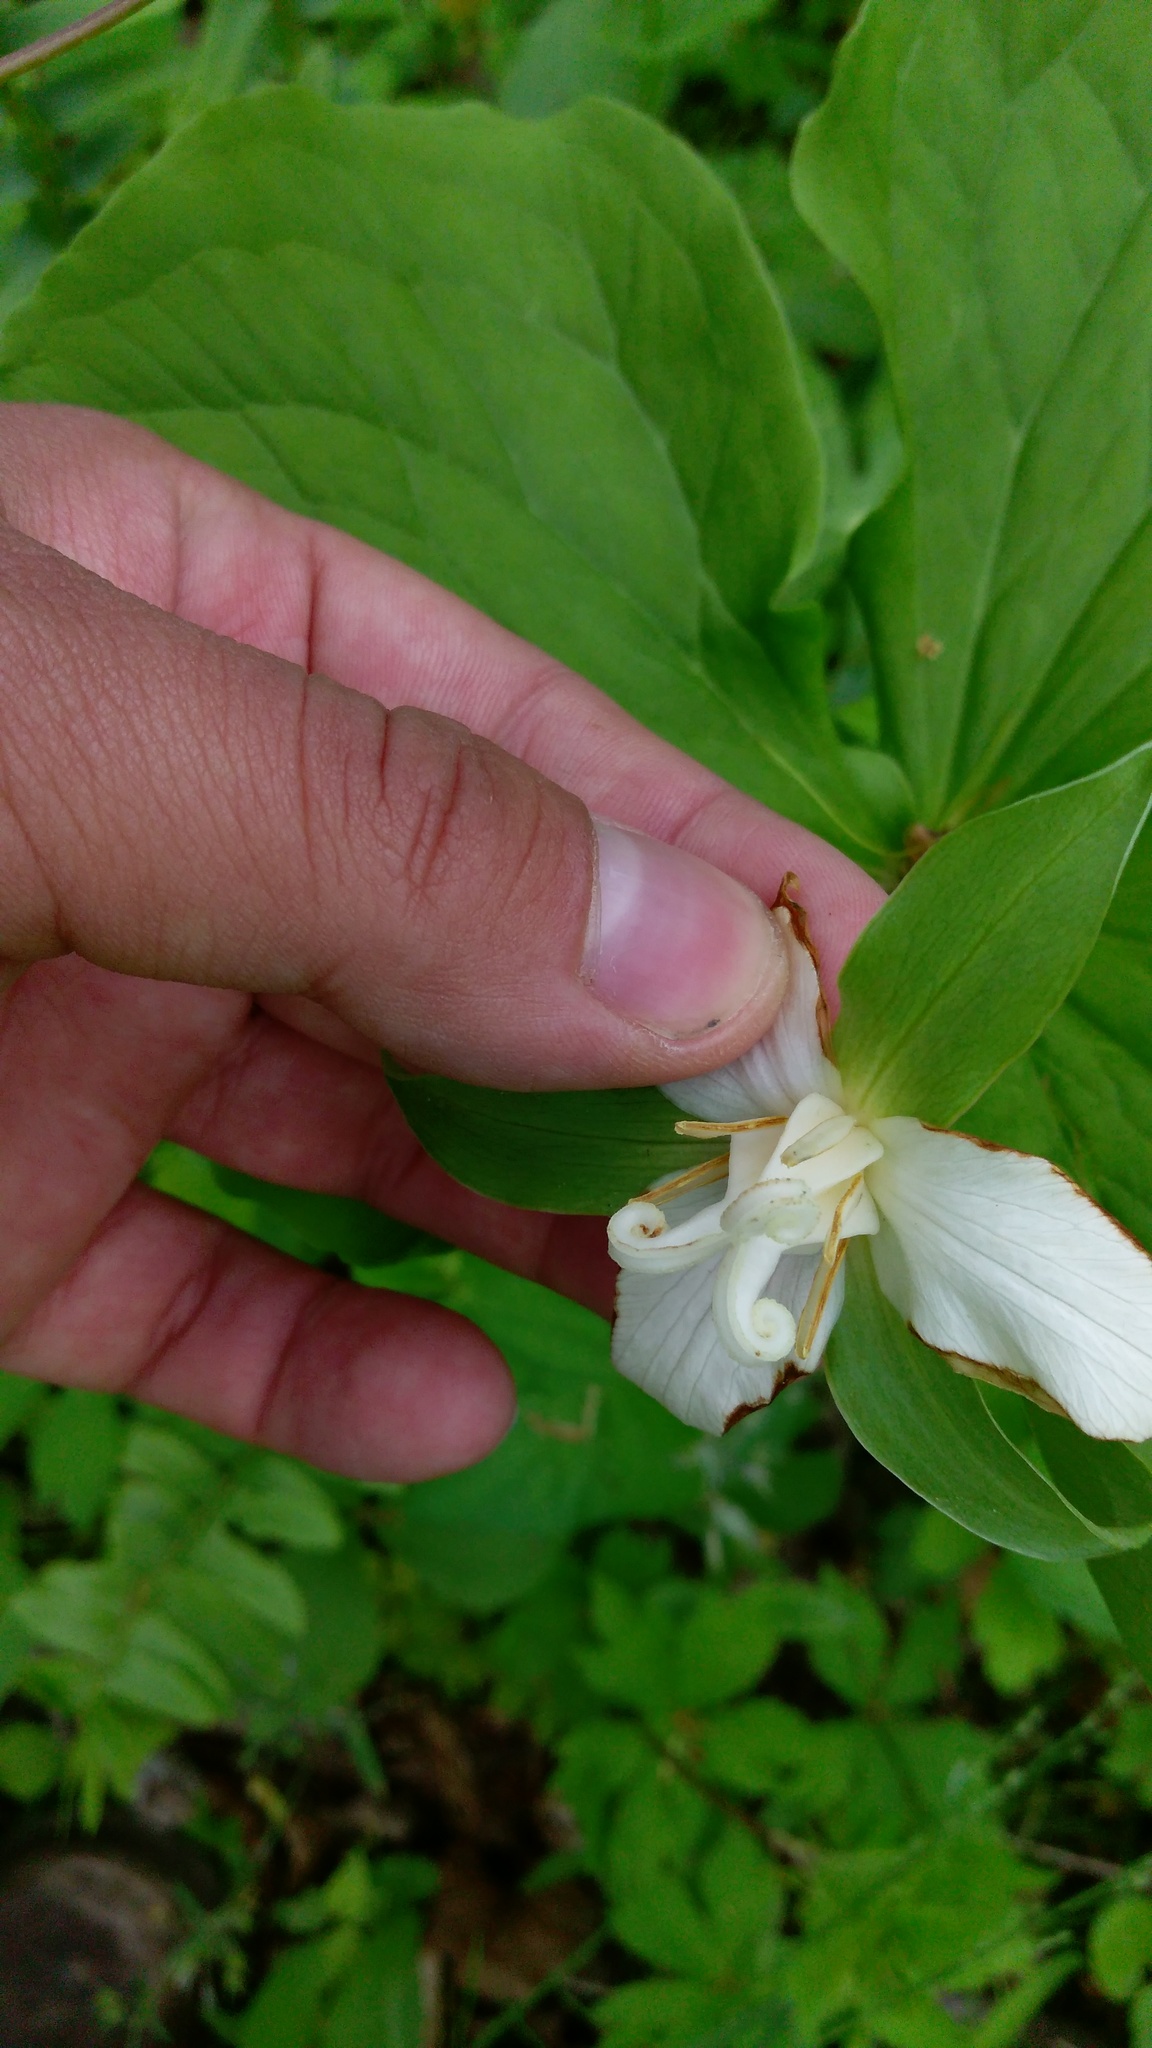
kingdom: Plantae
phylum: Tracheophyta
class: Liliopsida
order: Liliales
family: Melanthiaceae
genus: Trillium
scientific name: Trillium flexipes
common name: Drooping trillium
